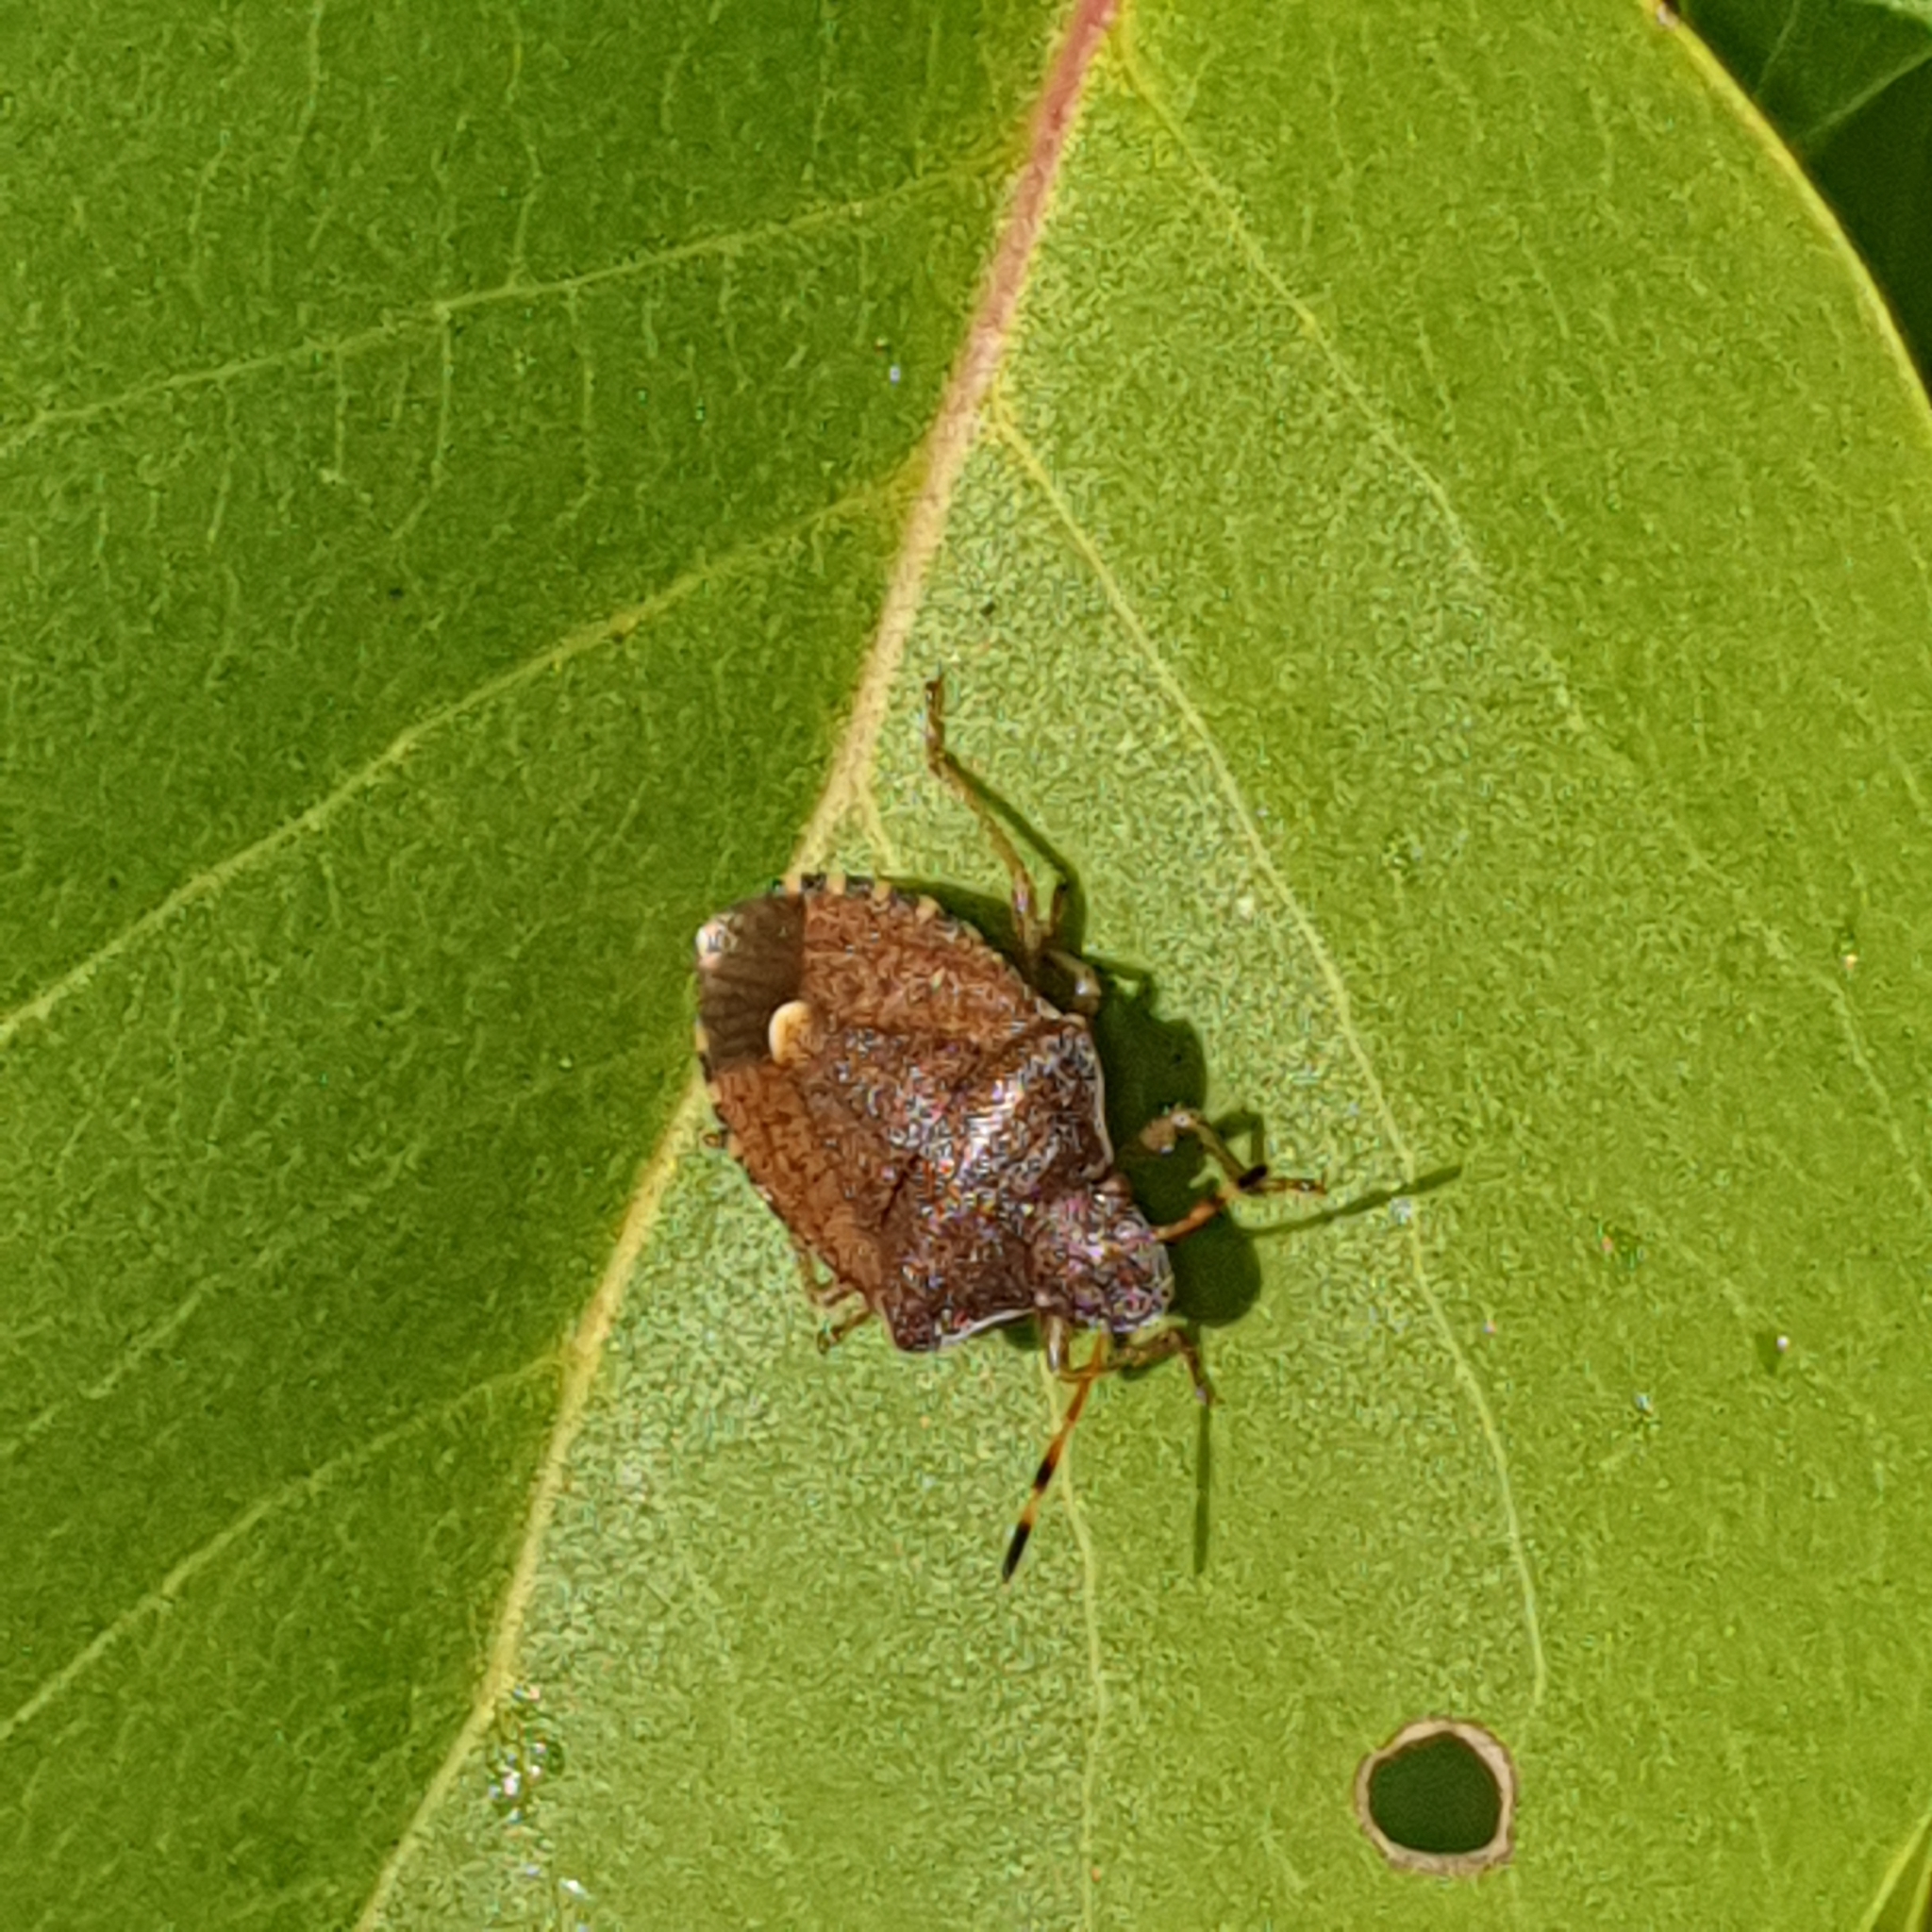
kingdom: Animalia
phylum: Arthropoda
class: Insecta
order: Hemiptera
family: Pentatomidae
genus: Holcostethus
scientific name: Holcostethus strictus
